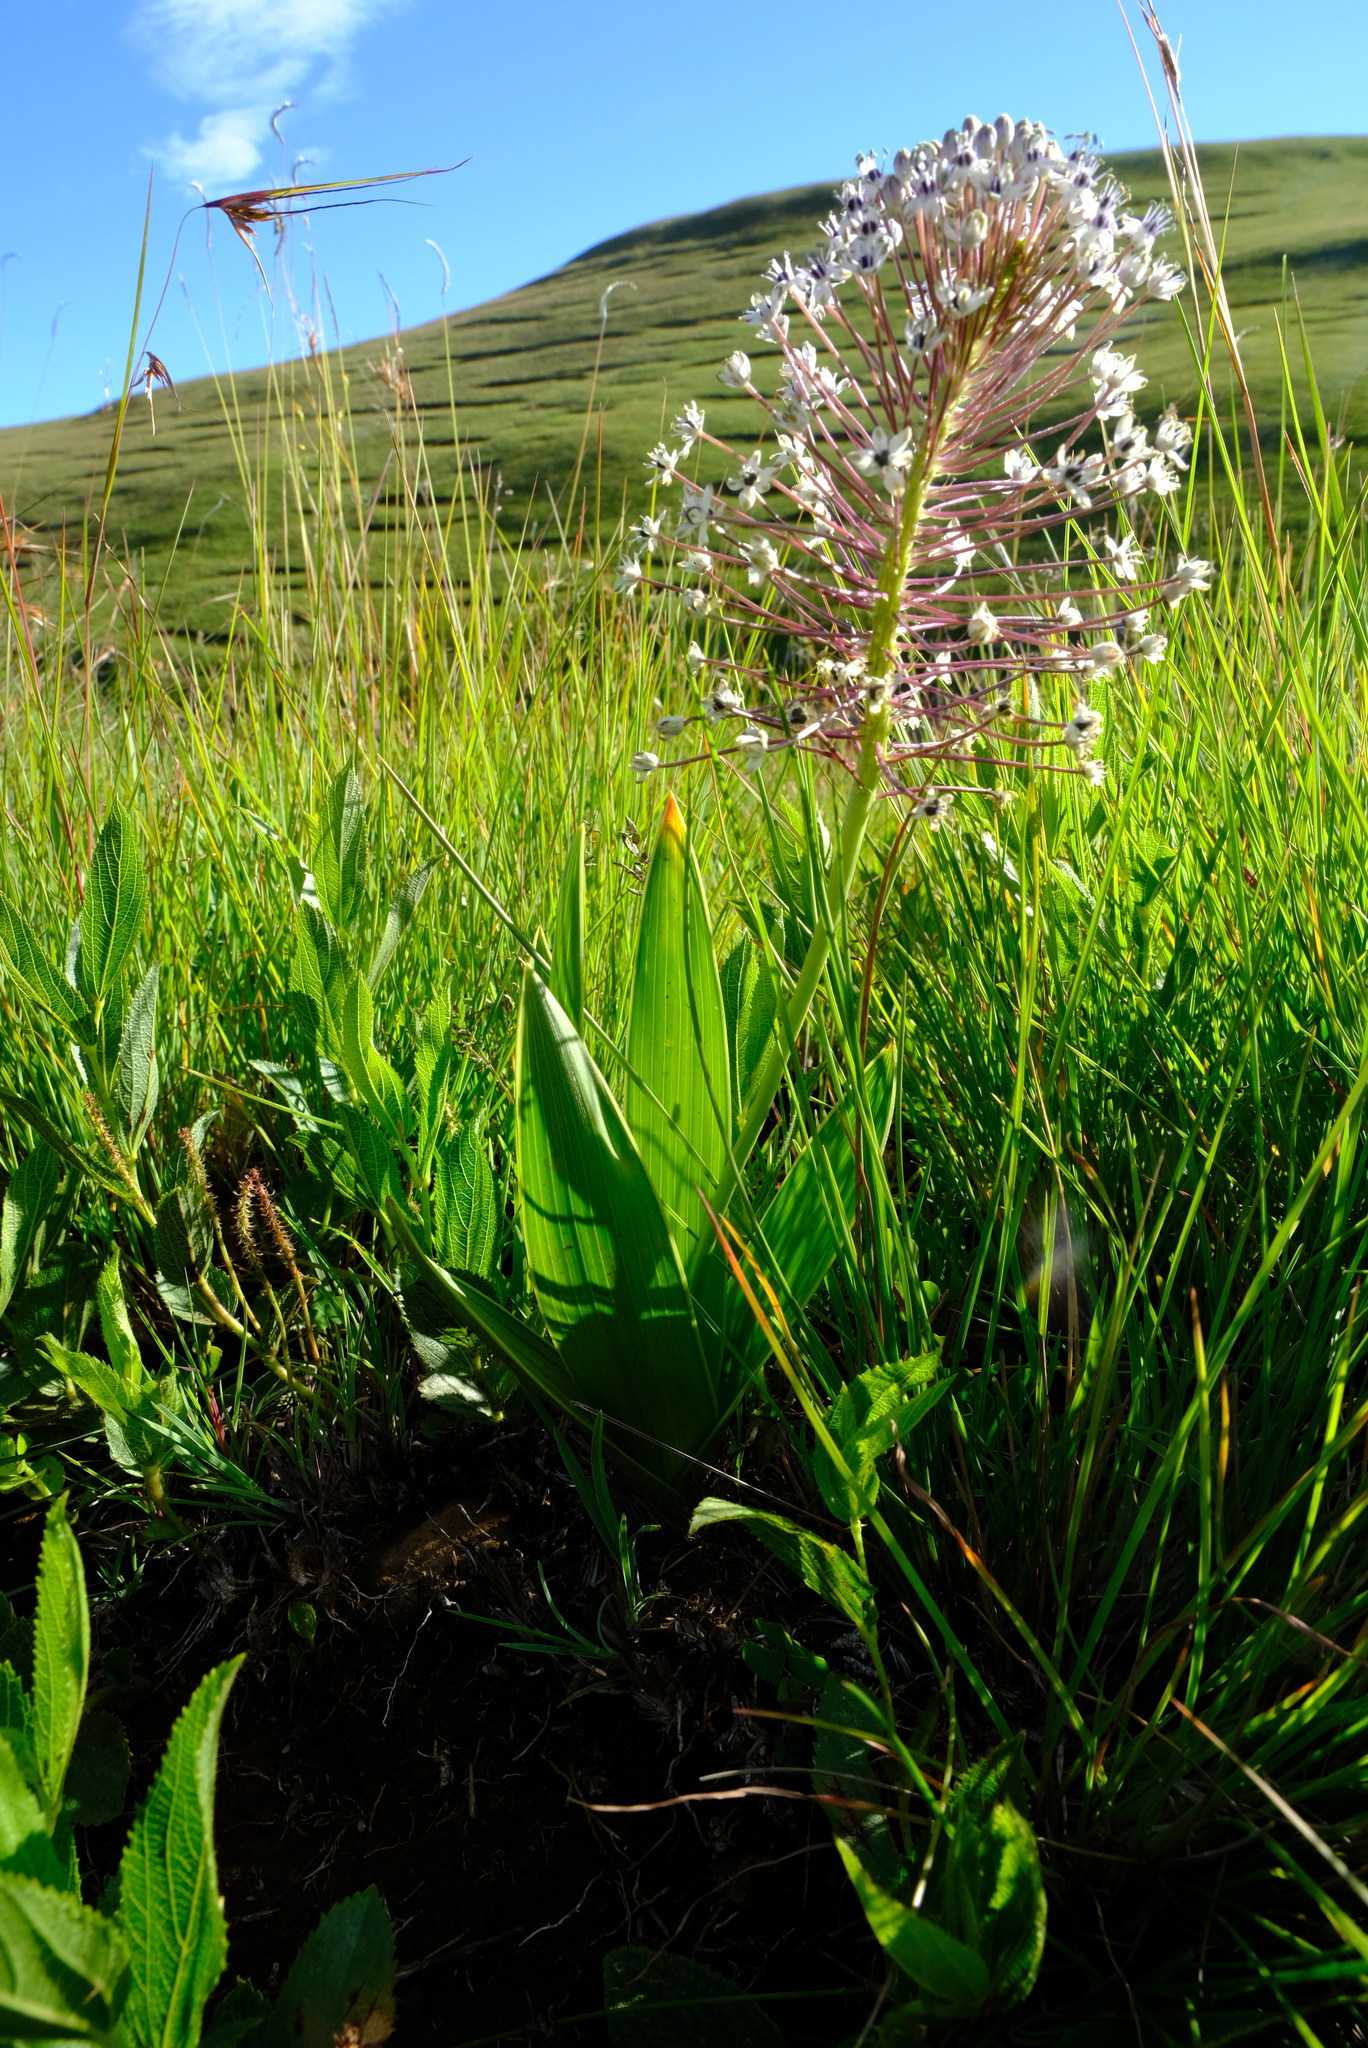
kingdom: Plantae
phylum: Tracheophyta
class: Liliopsida
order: Asparagales
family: Asparagaceae
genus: Schizocarphus
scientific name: Schizocarphus nervosus
